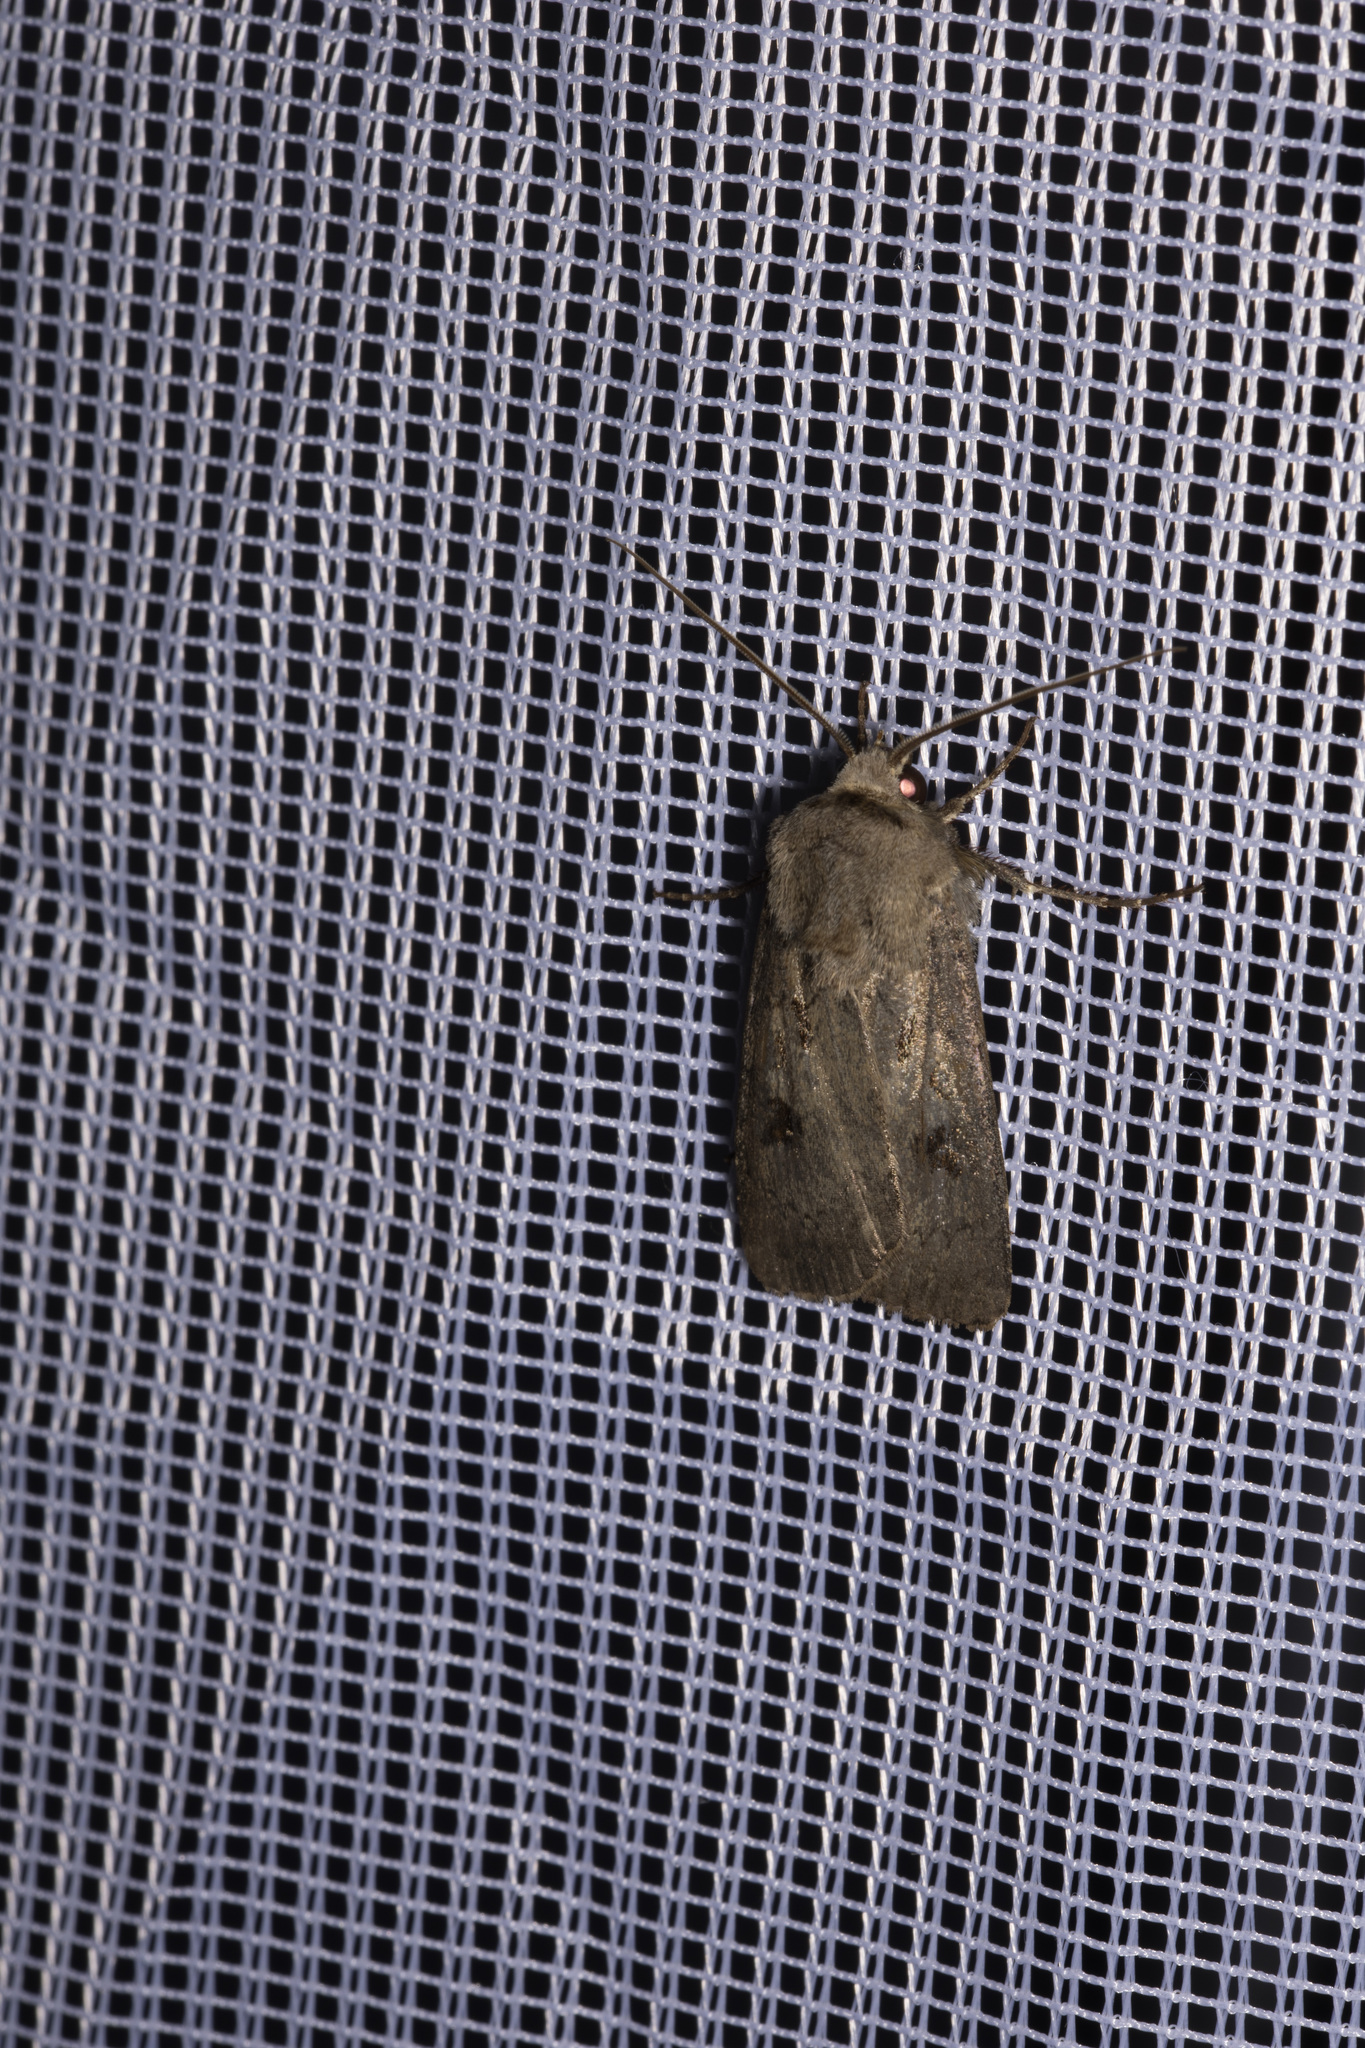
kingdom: Animalia
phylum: Arthropoda
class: Insecta
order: Lepidoptera
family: Noctuidae
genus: Agrotis
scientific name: Agrotis exclamationis
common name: Heart and dart
